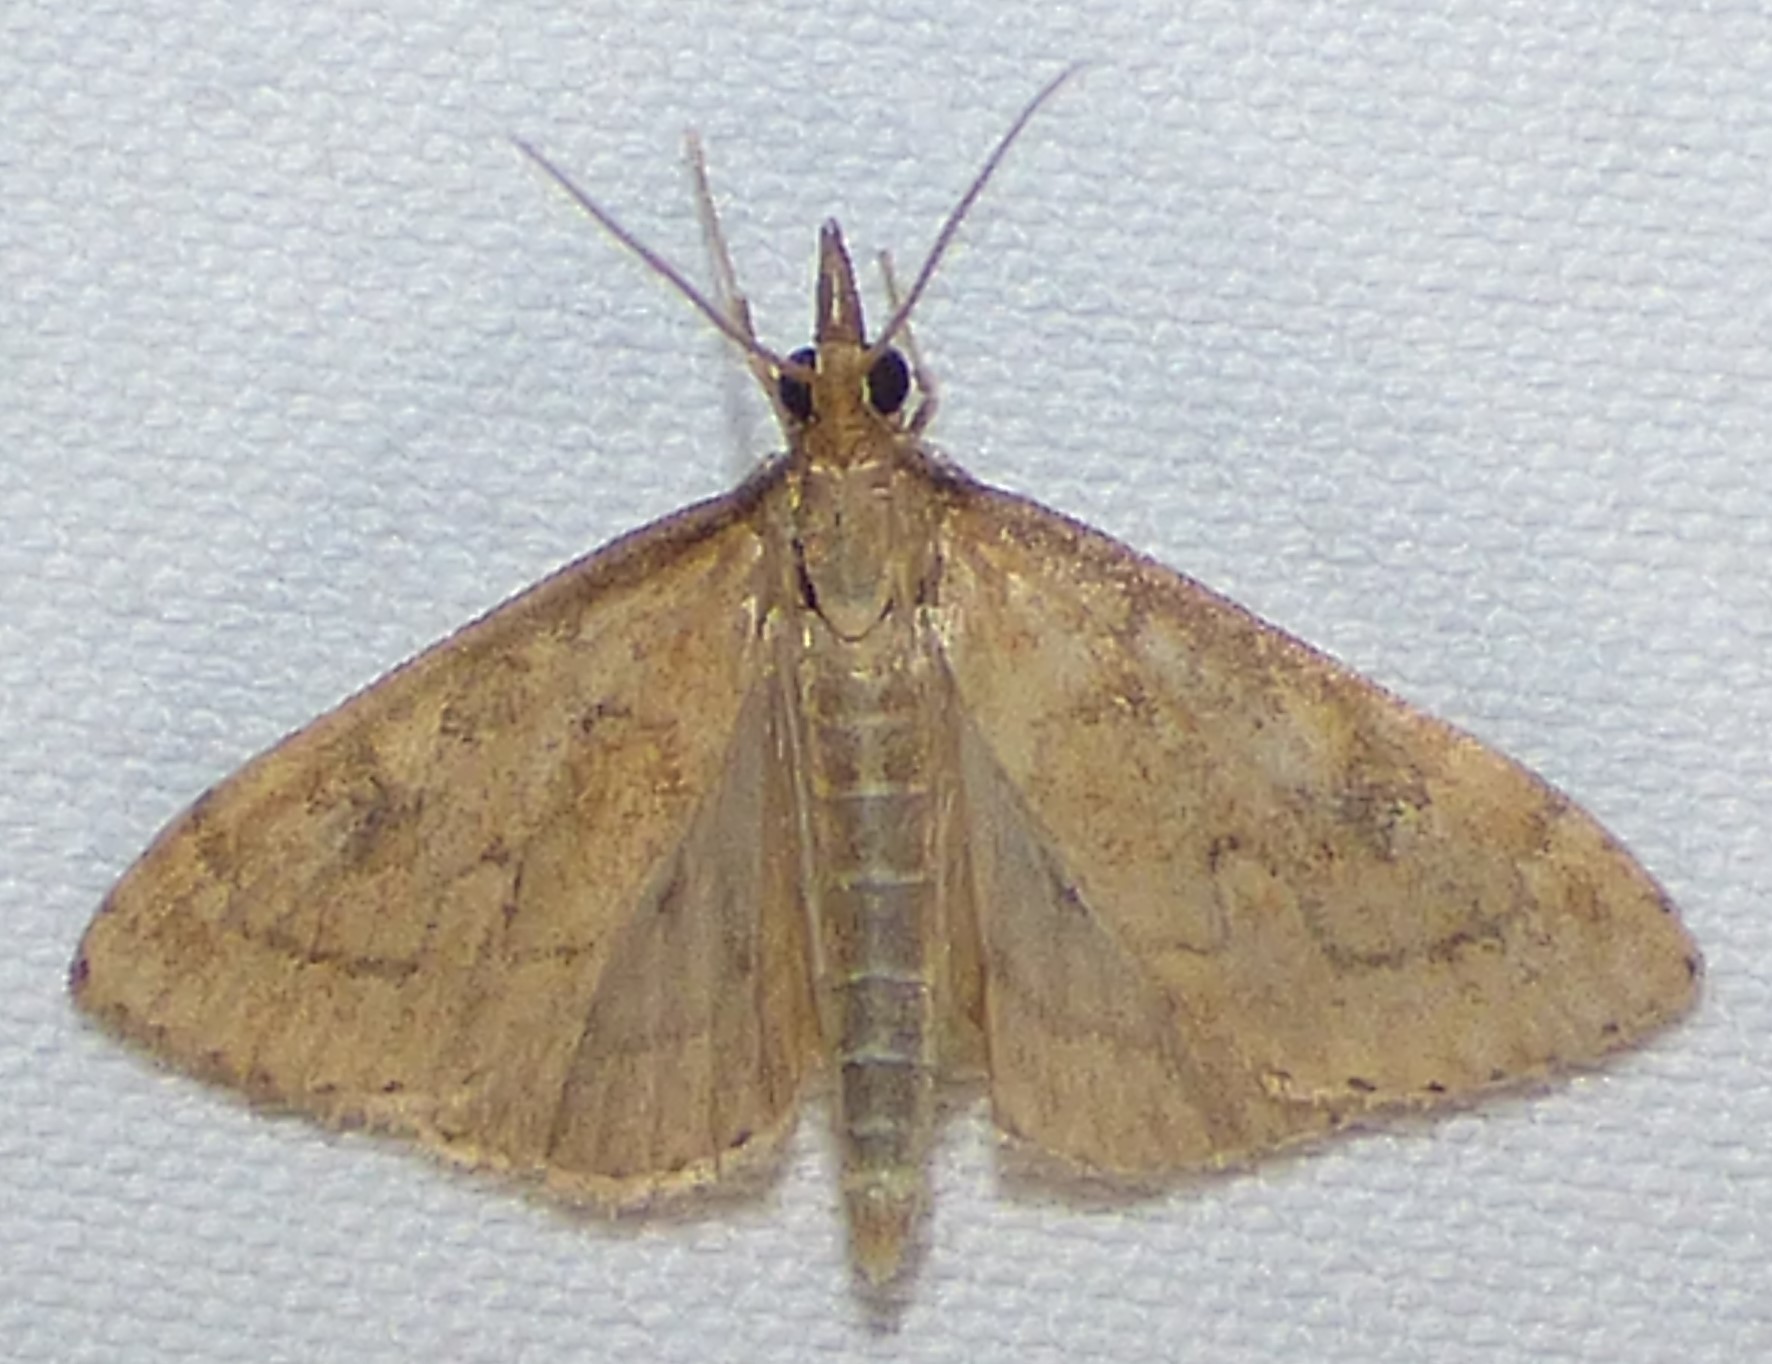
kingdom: Animalia
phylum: Arthropoda
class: Insecta
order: Lepidoptera
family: Crambidae
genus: Udea
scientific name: Udea rubigalis
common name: Celery leaftier moth
